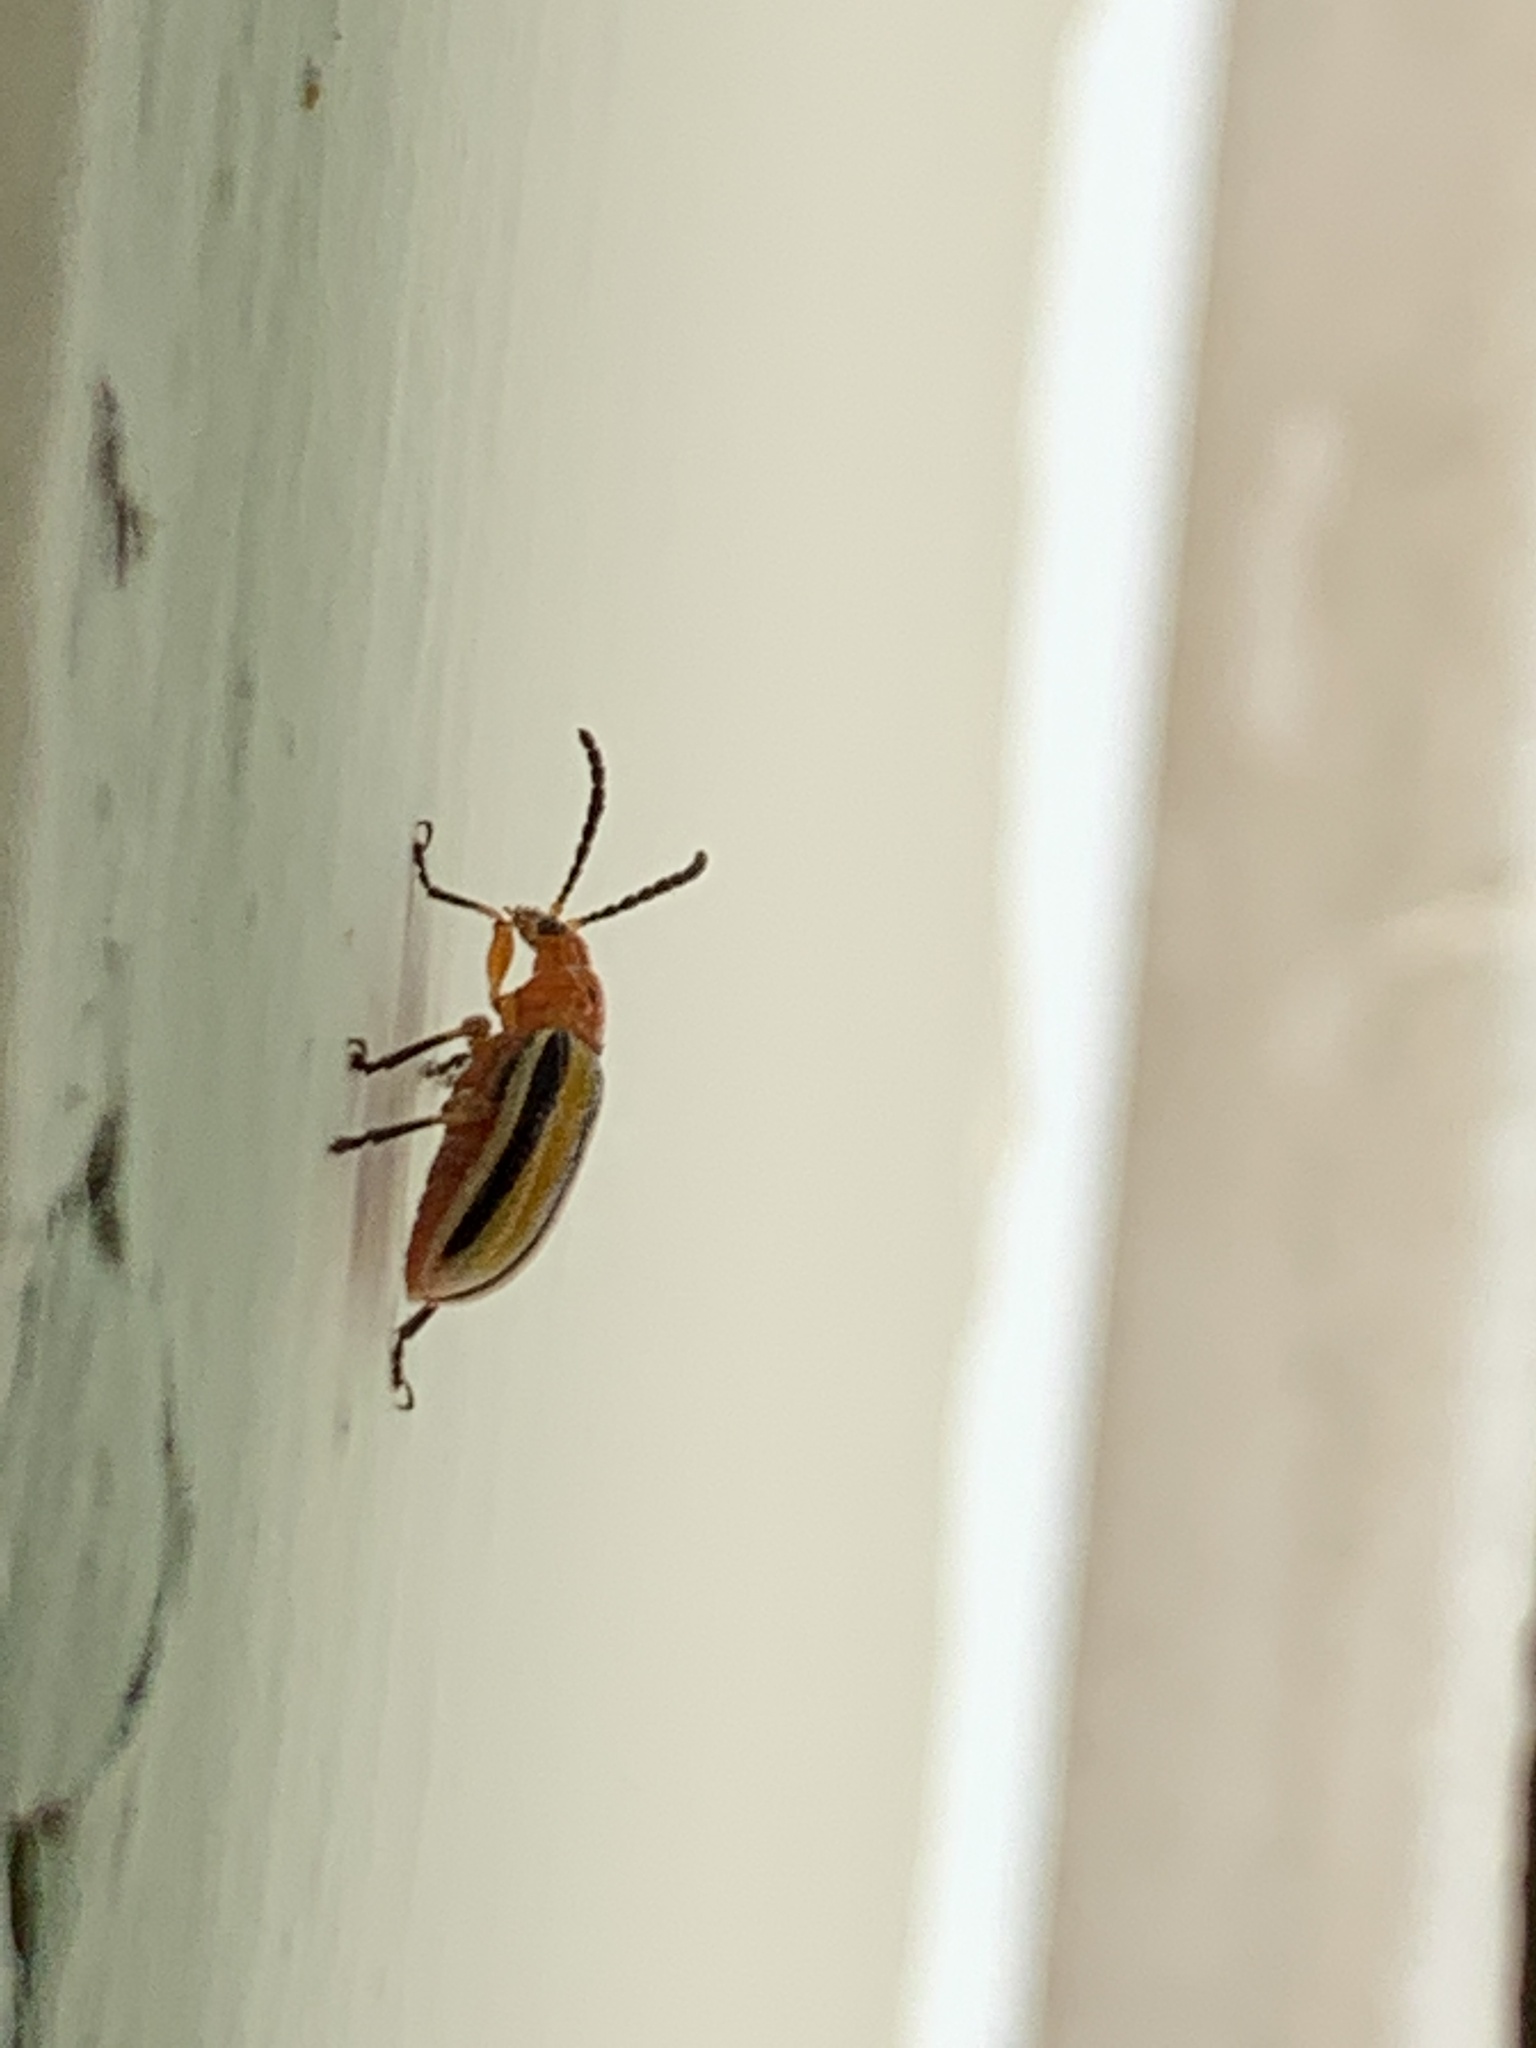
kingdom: Animalia
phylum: Arthropoda
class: Insecta
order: Coleoptera
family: Chrysomelidae
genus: Lema
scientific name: Lema daturaphila
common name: Leaf beetle
